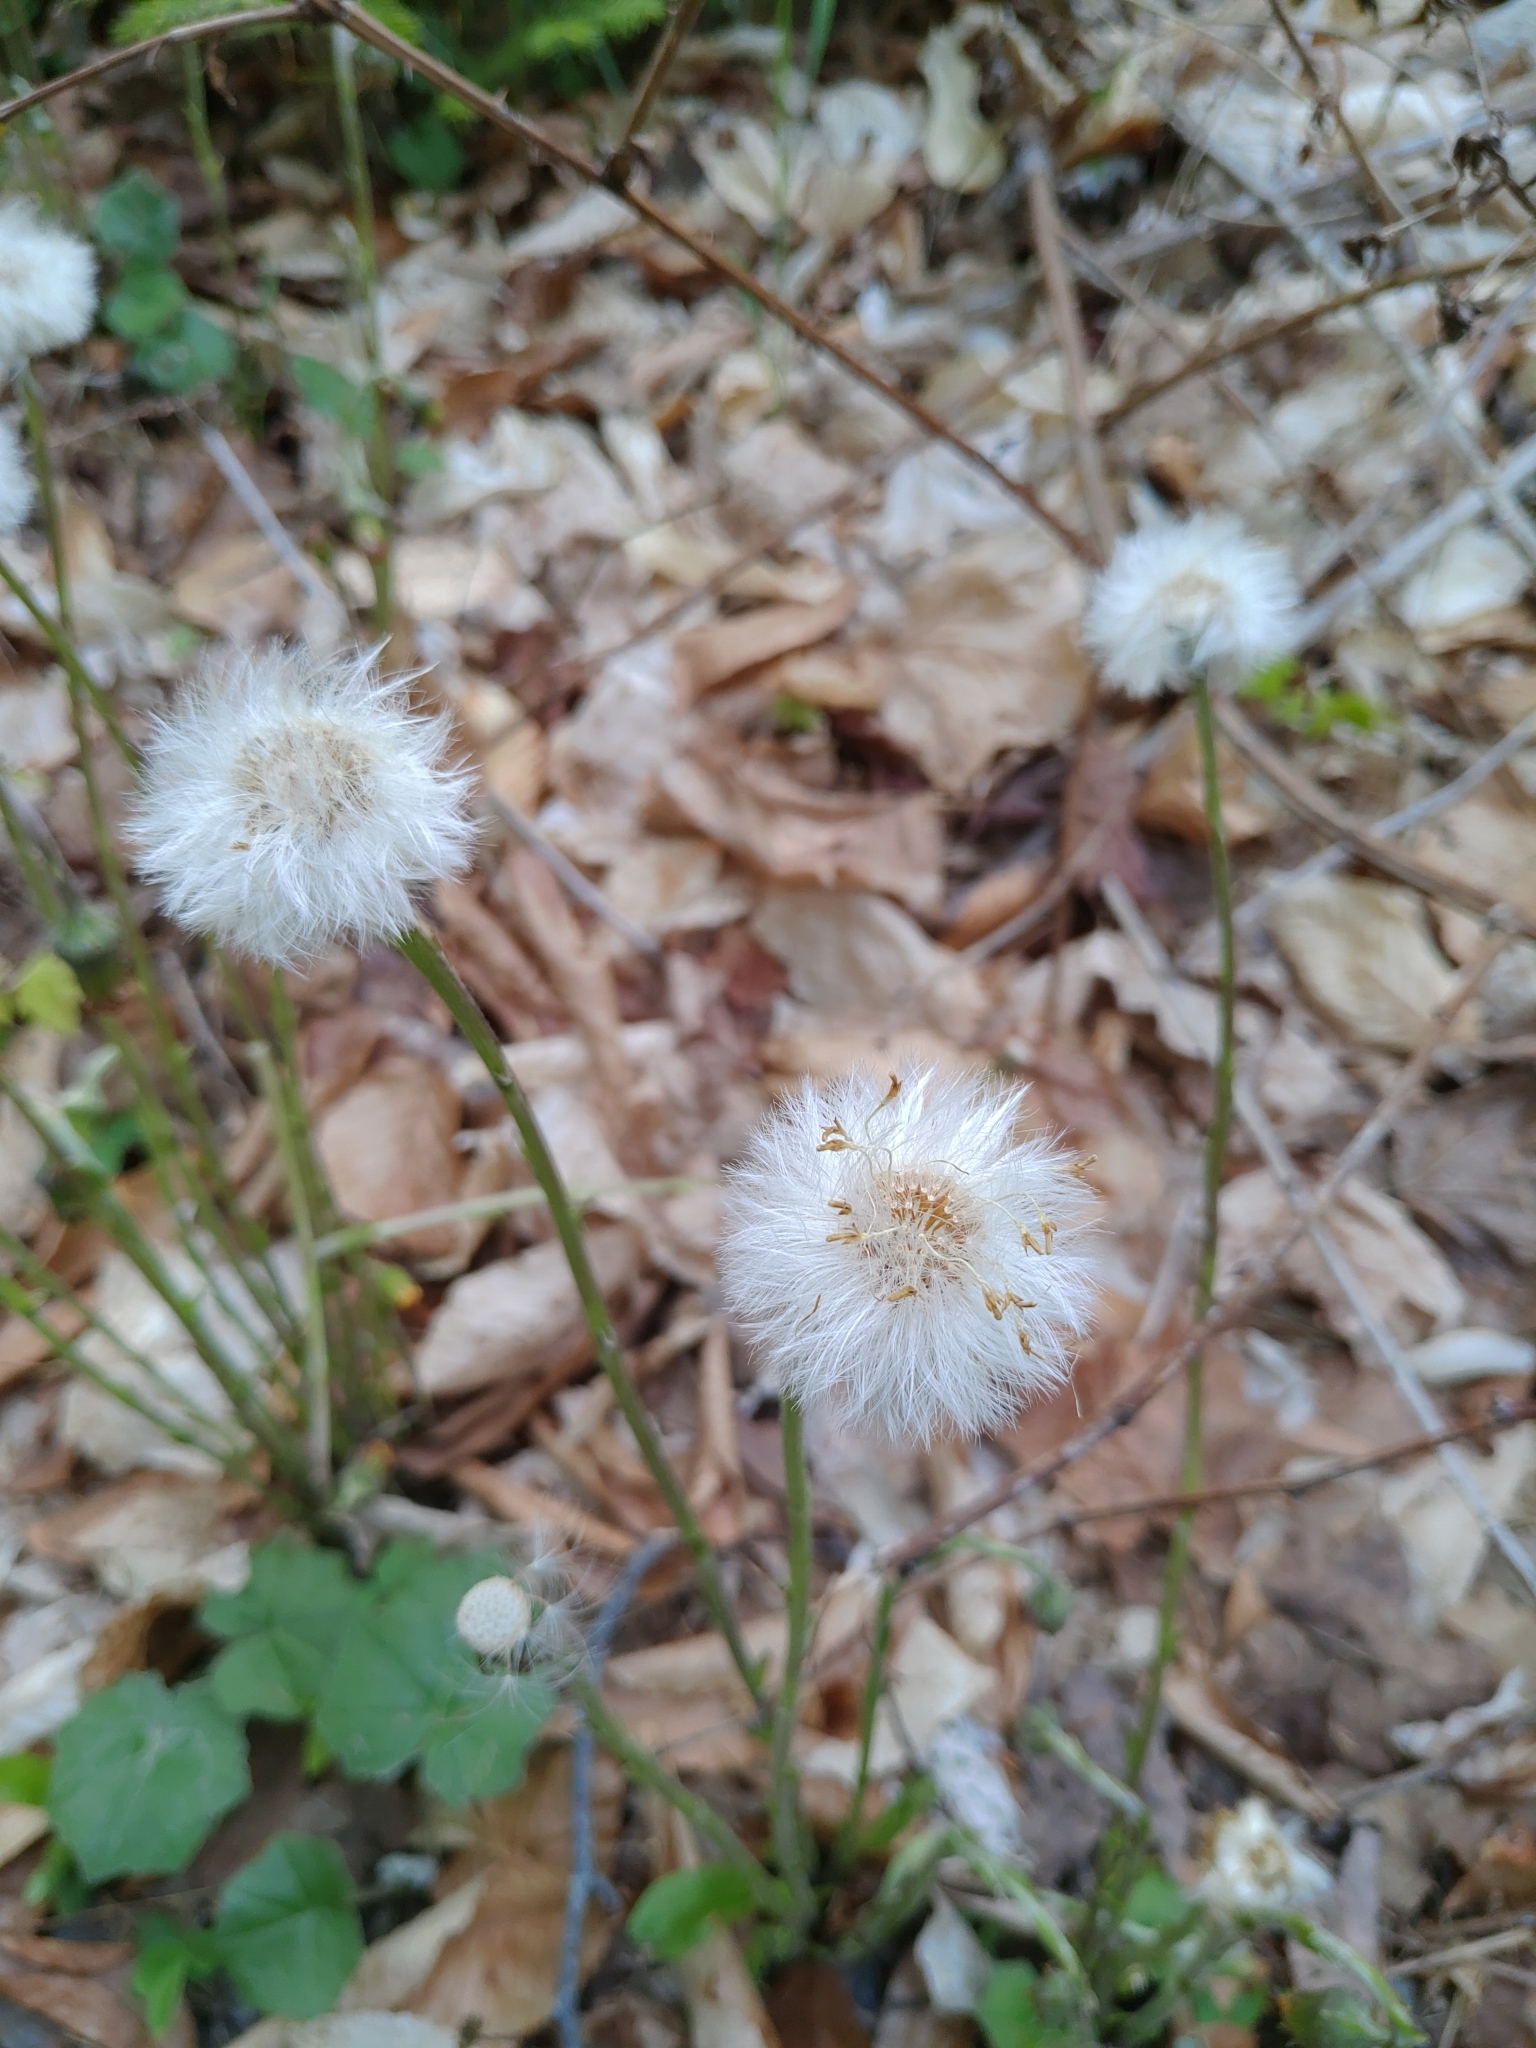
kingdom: Plantae
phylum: Tracheophyta
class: Magnoliopsida
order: Asterales
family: Asteraceae
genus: Tussilago
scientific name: Tussilago farfara
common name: Coltsfoot
